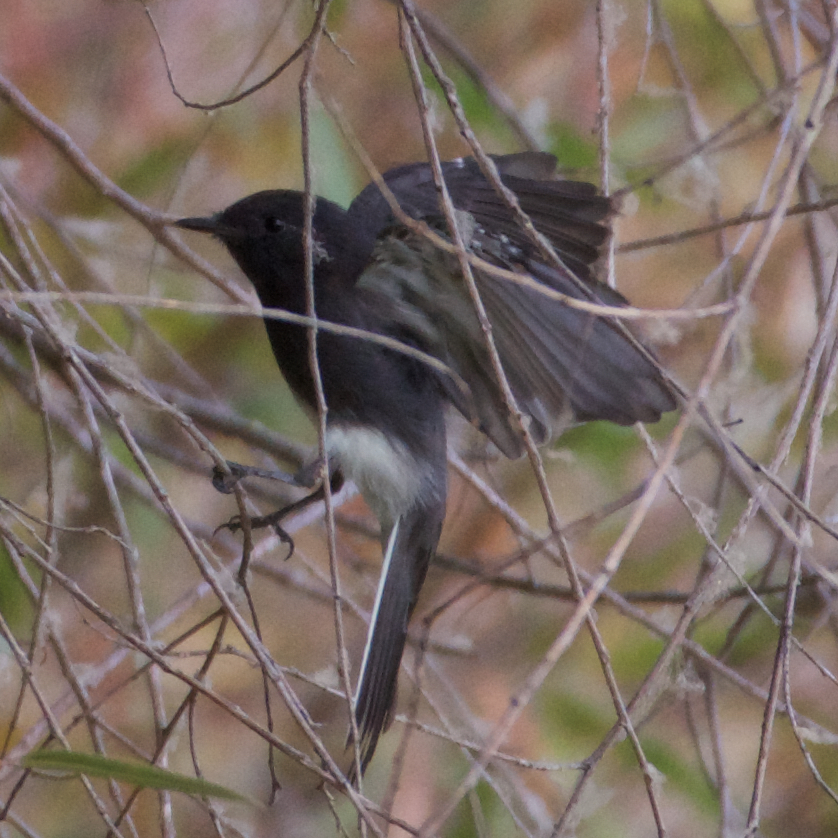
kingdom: Animalia
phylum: Chordata
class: Aves
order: Passeriformes
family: Tyrannidae
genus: Sayornis
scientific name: Sayornis nigricans
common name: Black phoebe
